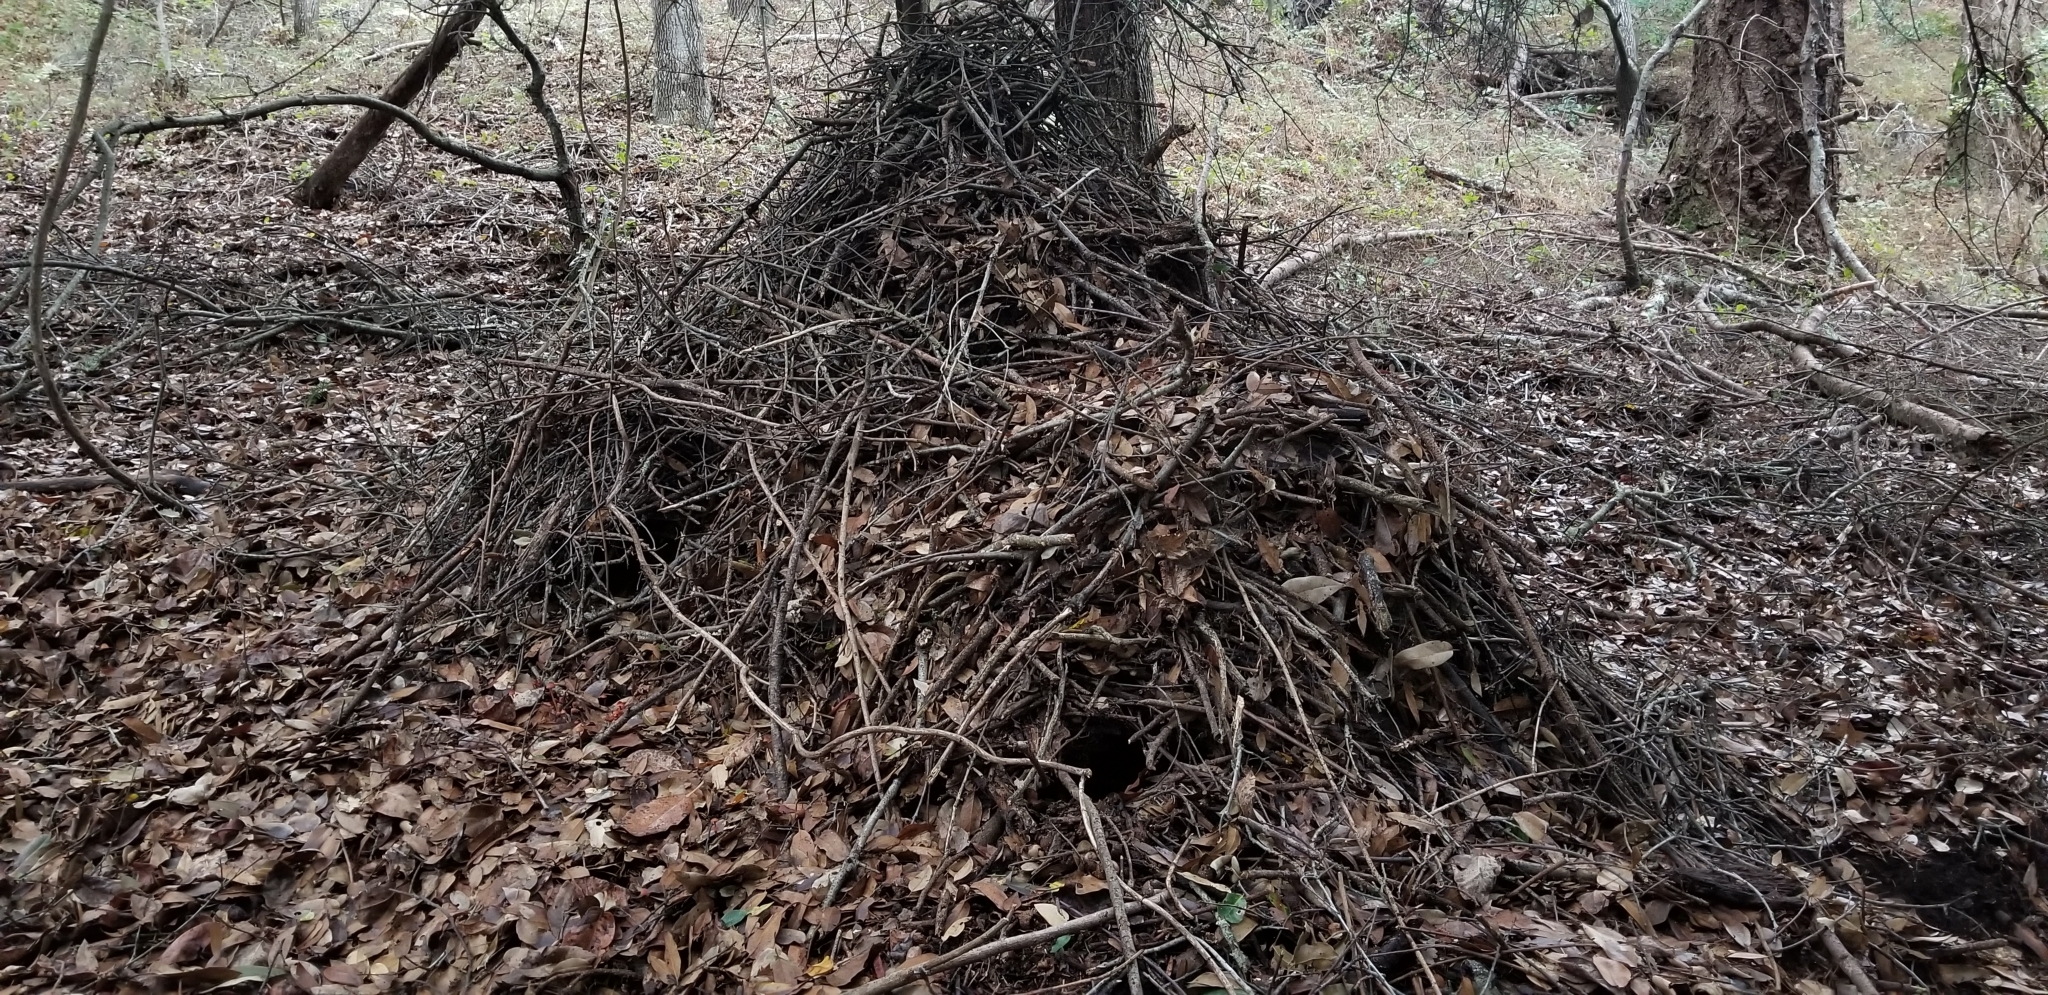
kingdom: Animalia
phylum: Chordata
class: Mammalia
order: Rodentia
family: Cricetidae
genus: Neotoma
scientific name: Neotoma fuscipes
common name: Dusky-footed woodrat
